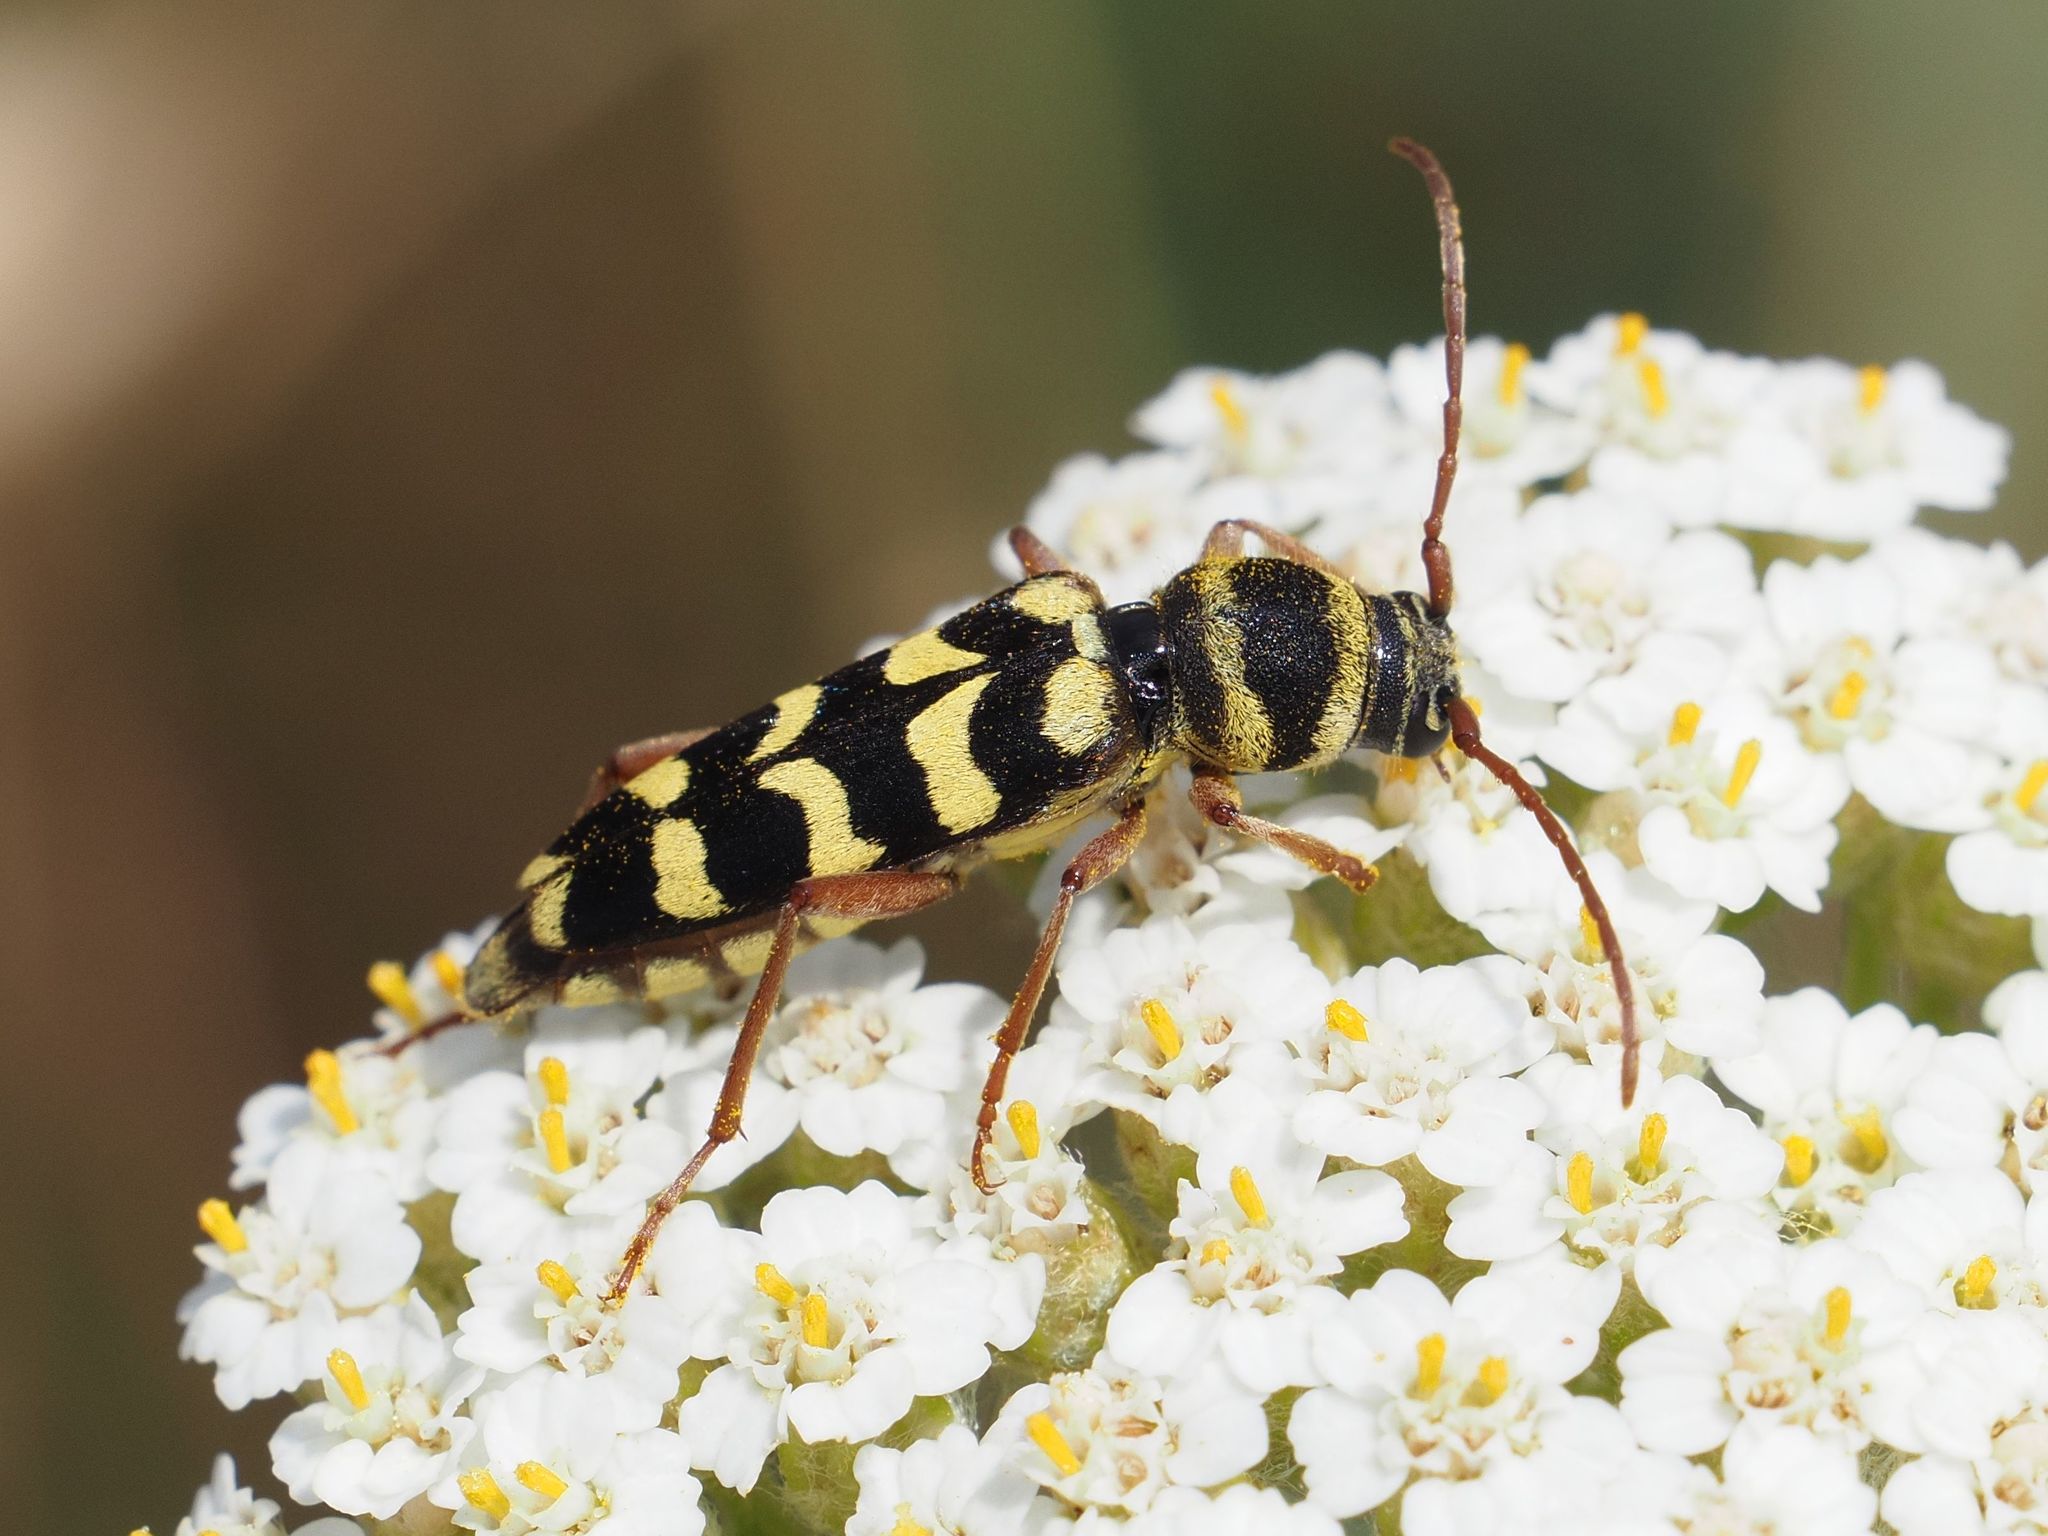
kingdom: Animalia
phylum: Arthropoda
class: Insecta
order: Coleoptera
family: Cerambycidae
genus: Plagionotus
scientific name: Plagionotus floralis
